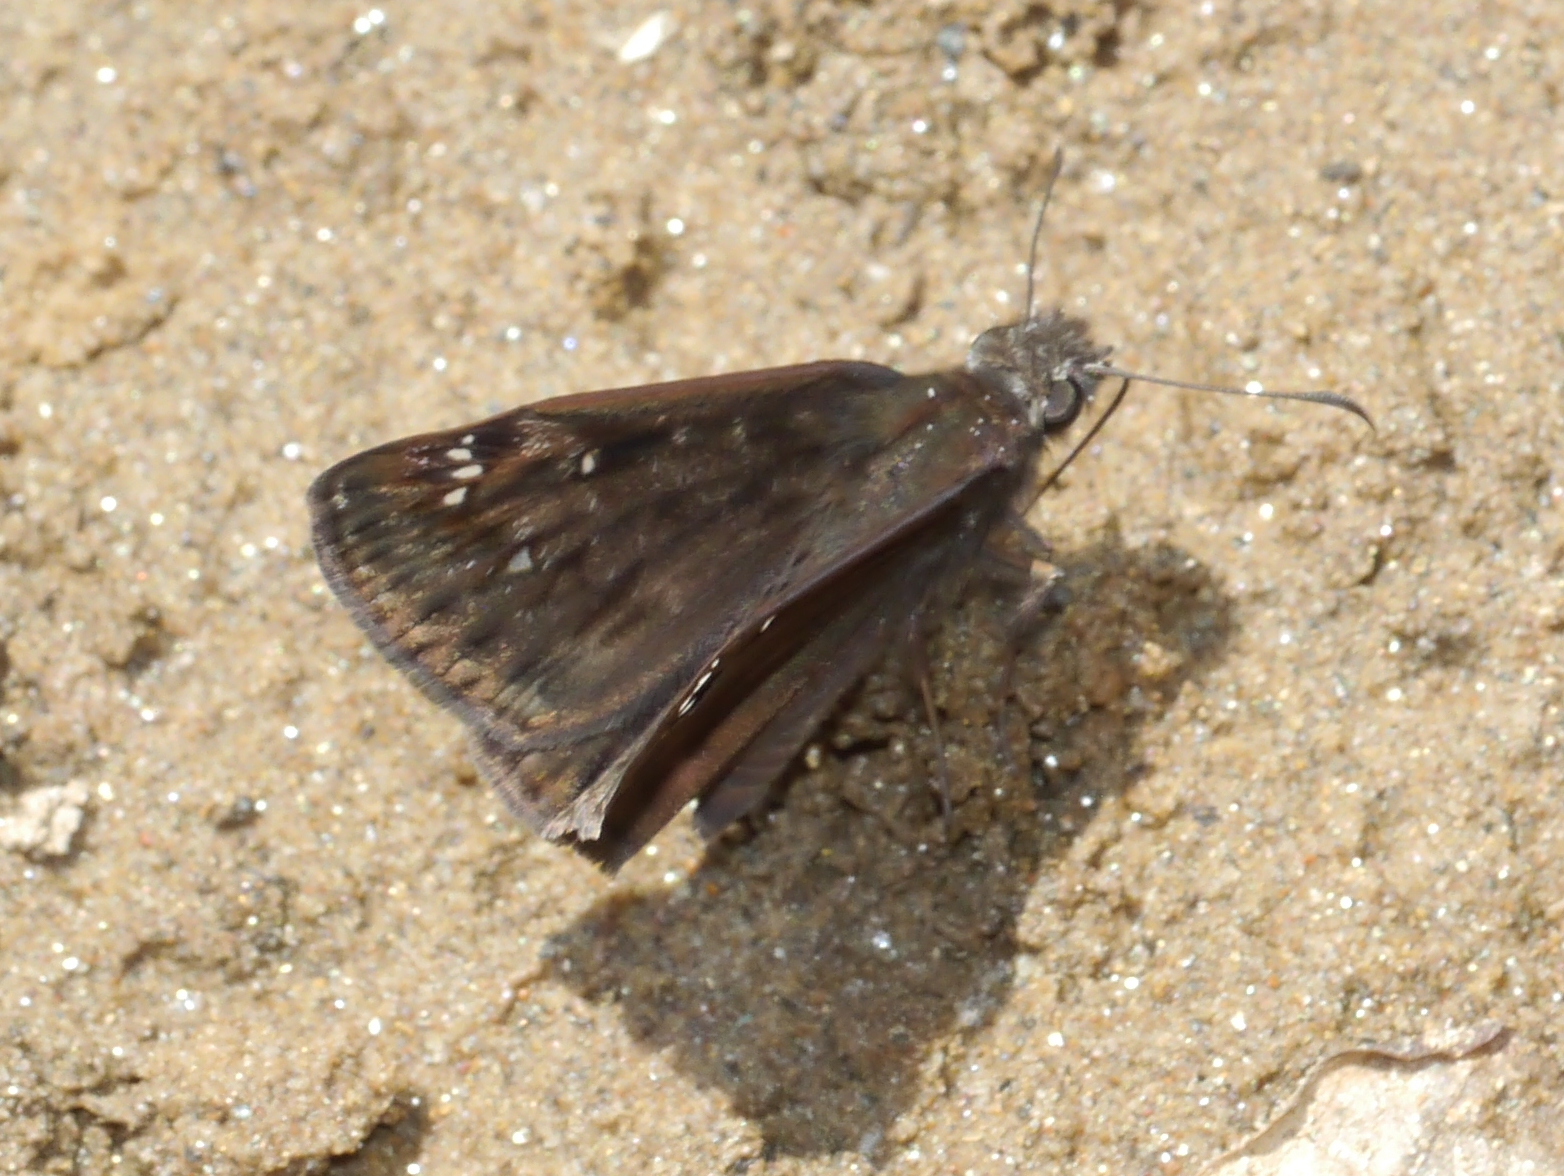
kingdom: Animalia
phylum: Arthropoda
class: Insecta
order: Lepidoptera
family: Hesperiidae
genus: Erynnis
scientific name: Erynnis horatius
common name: Horace's duskywing
